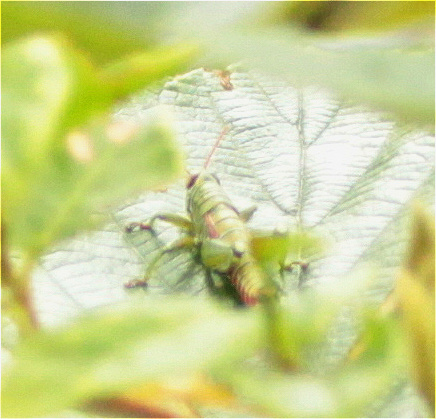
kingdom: Animalia
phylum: Arthropoda
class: Insecta
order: Orthoptera
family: Acrididae
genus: Agesander
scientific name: Agesander ruficornis
